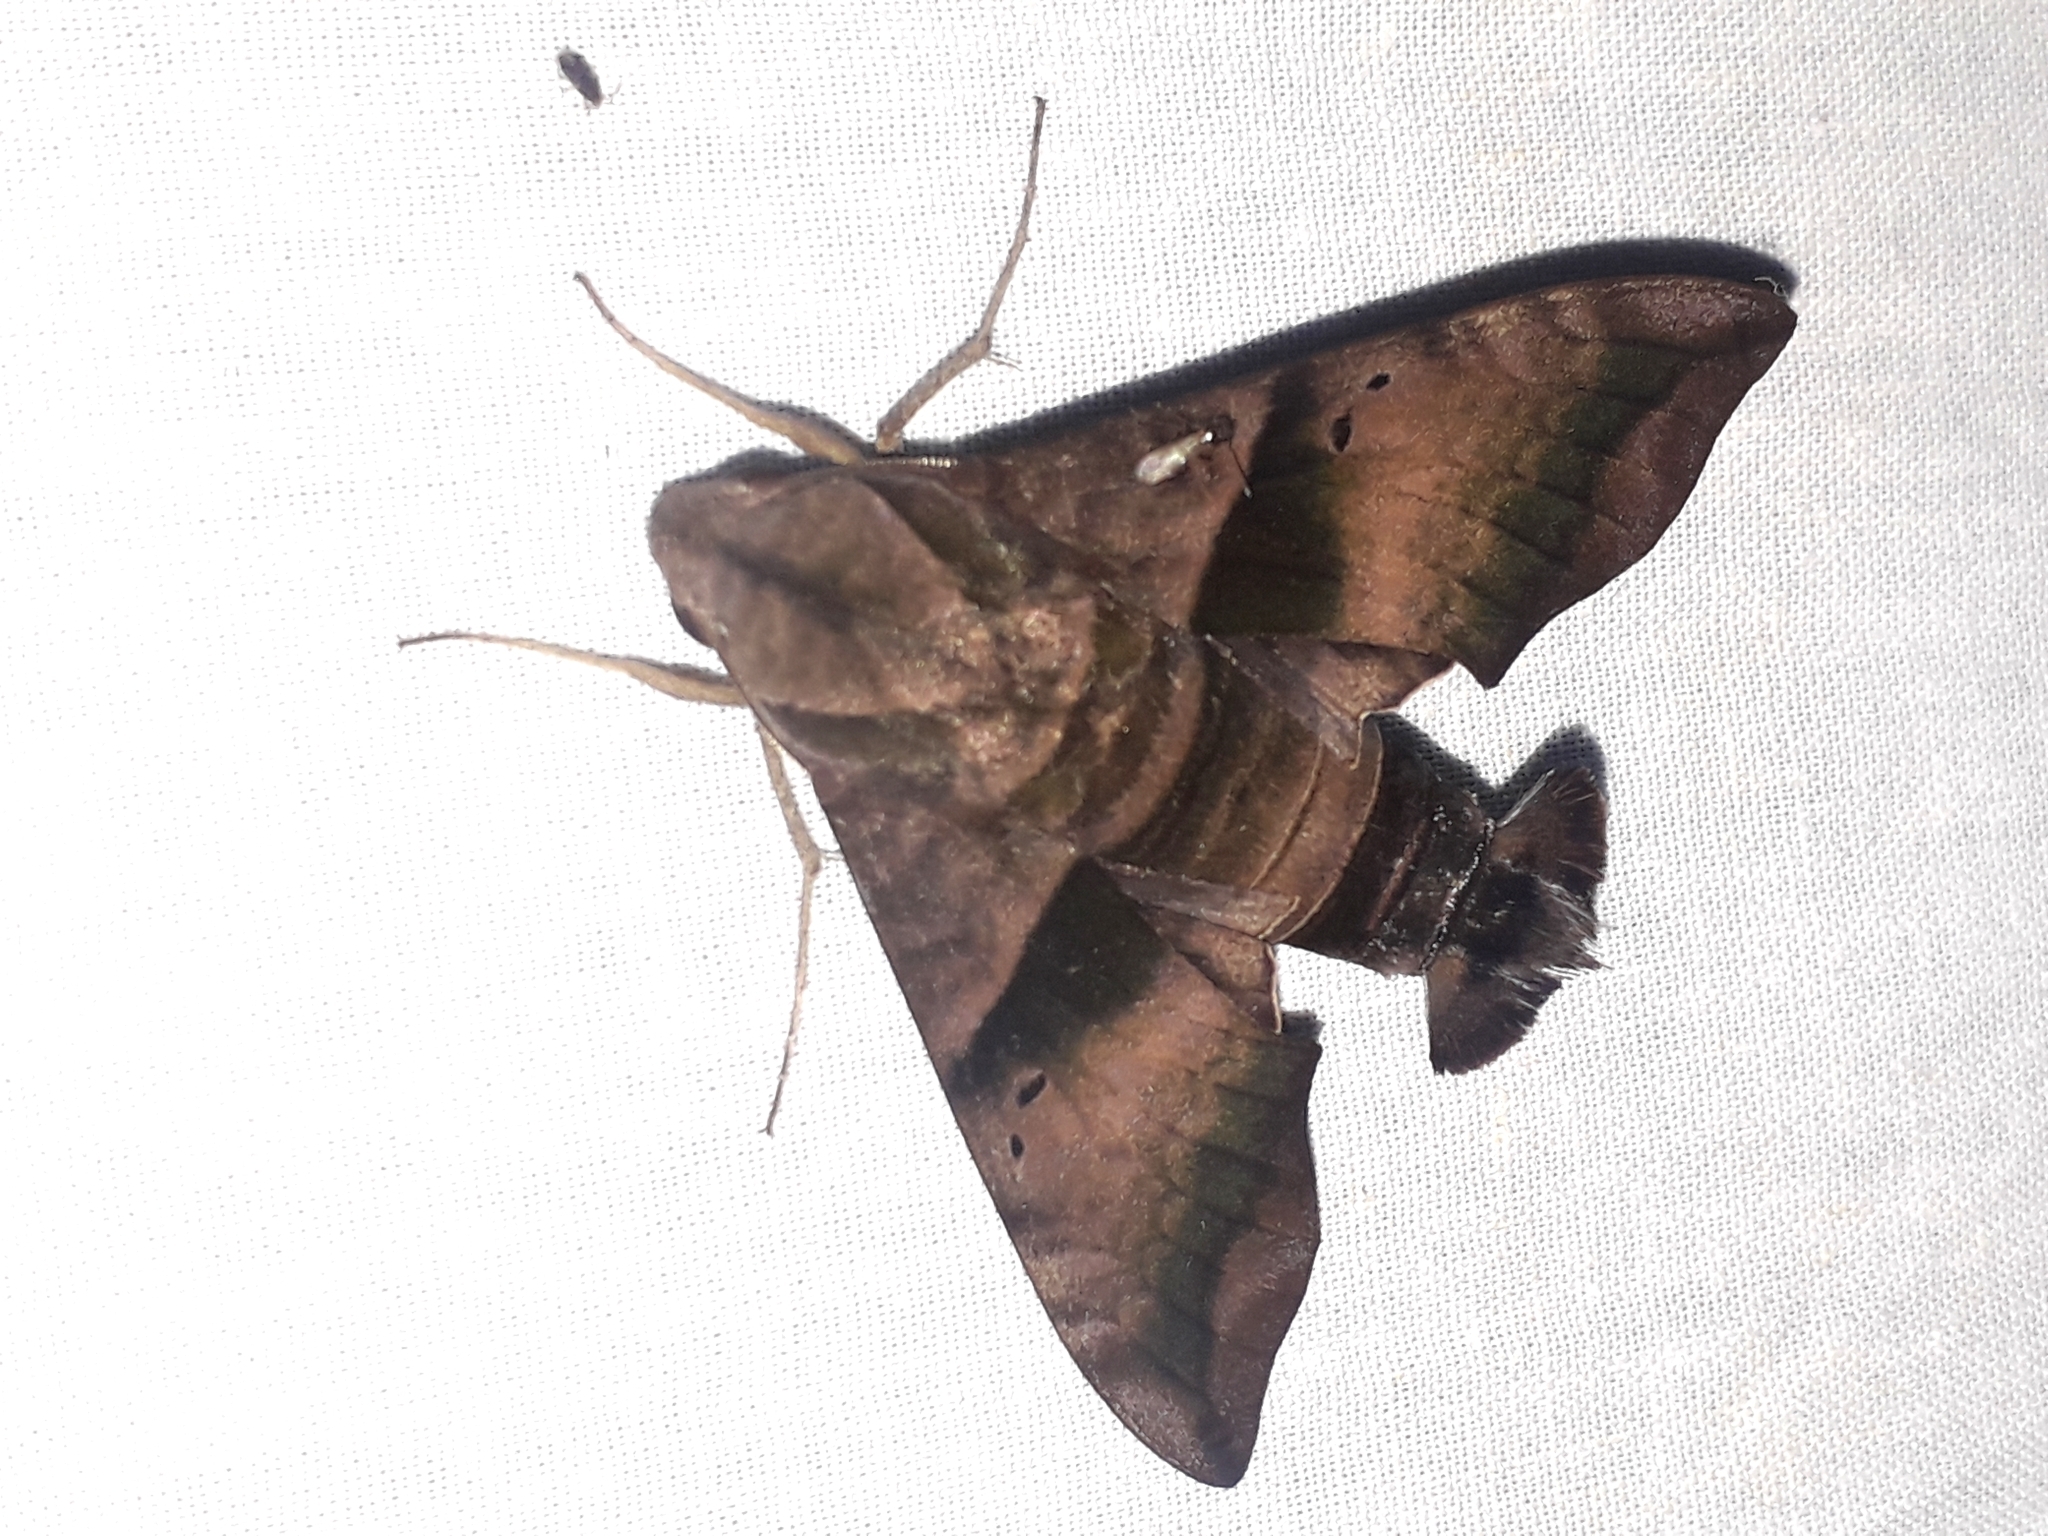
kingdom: Animalia
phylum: Arthropoda
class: Insecta
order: Lepidoptera
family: Sphingidae
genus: Perigonia
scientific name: Perigonia lusca
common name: Half-blind sphinx
